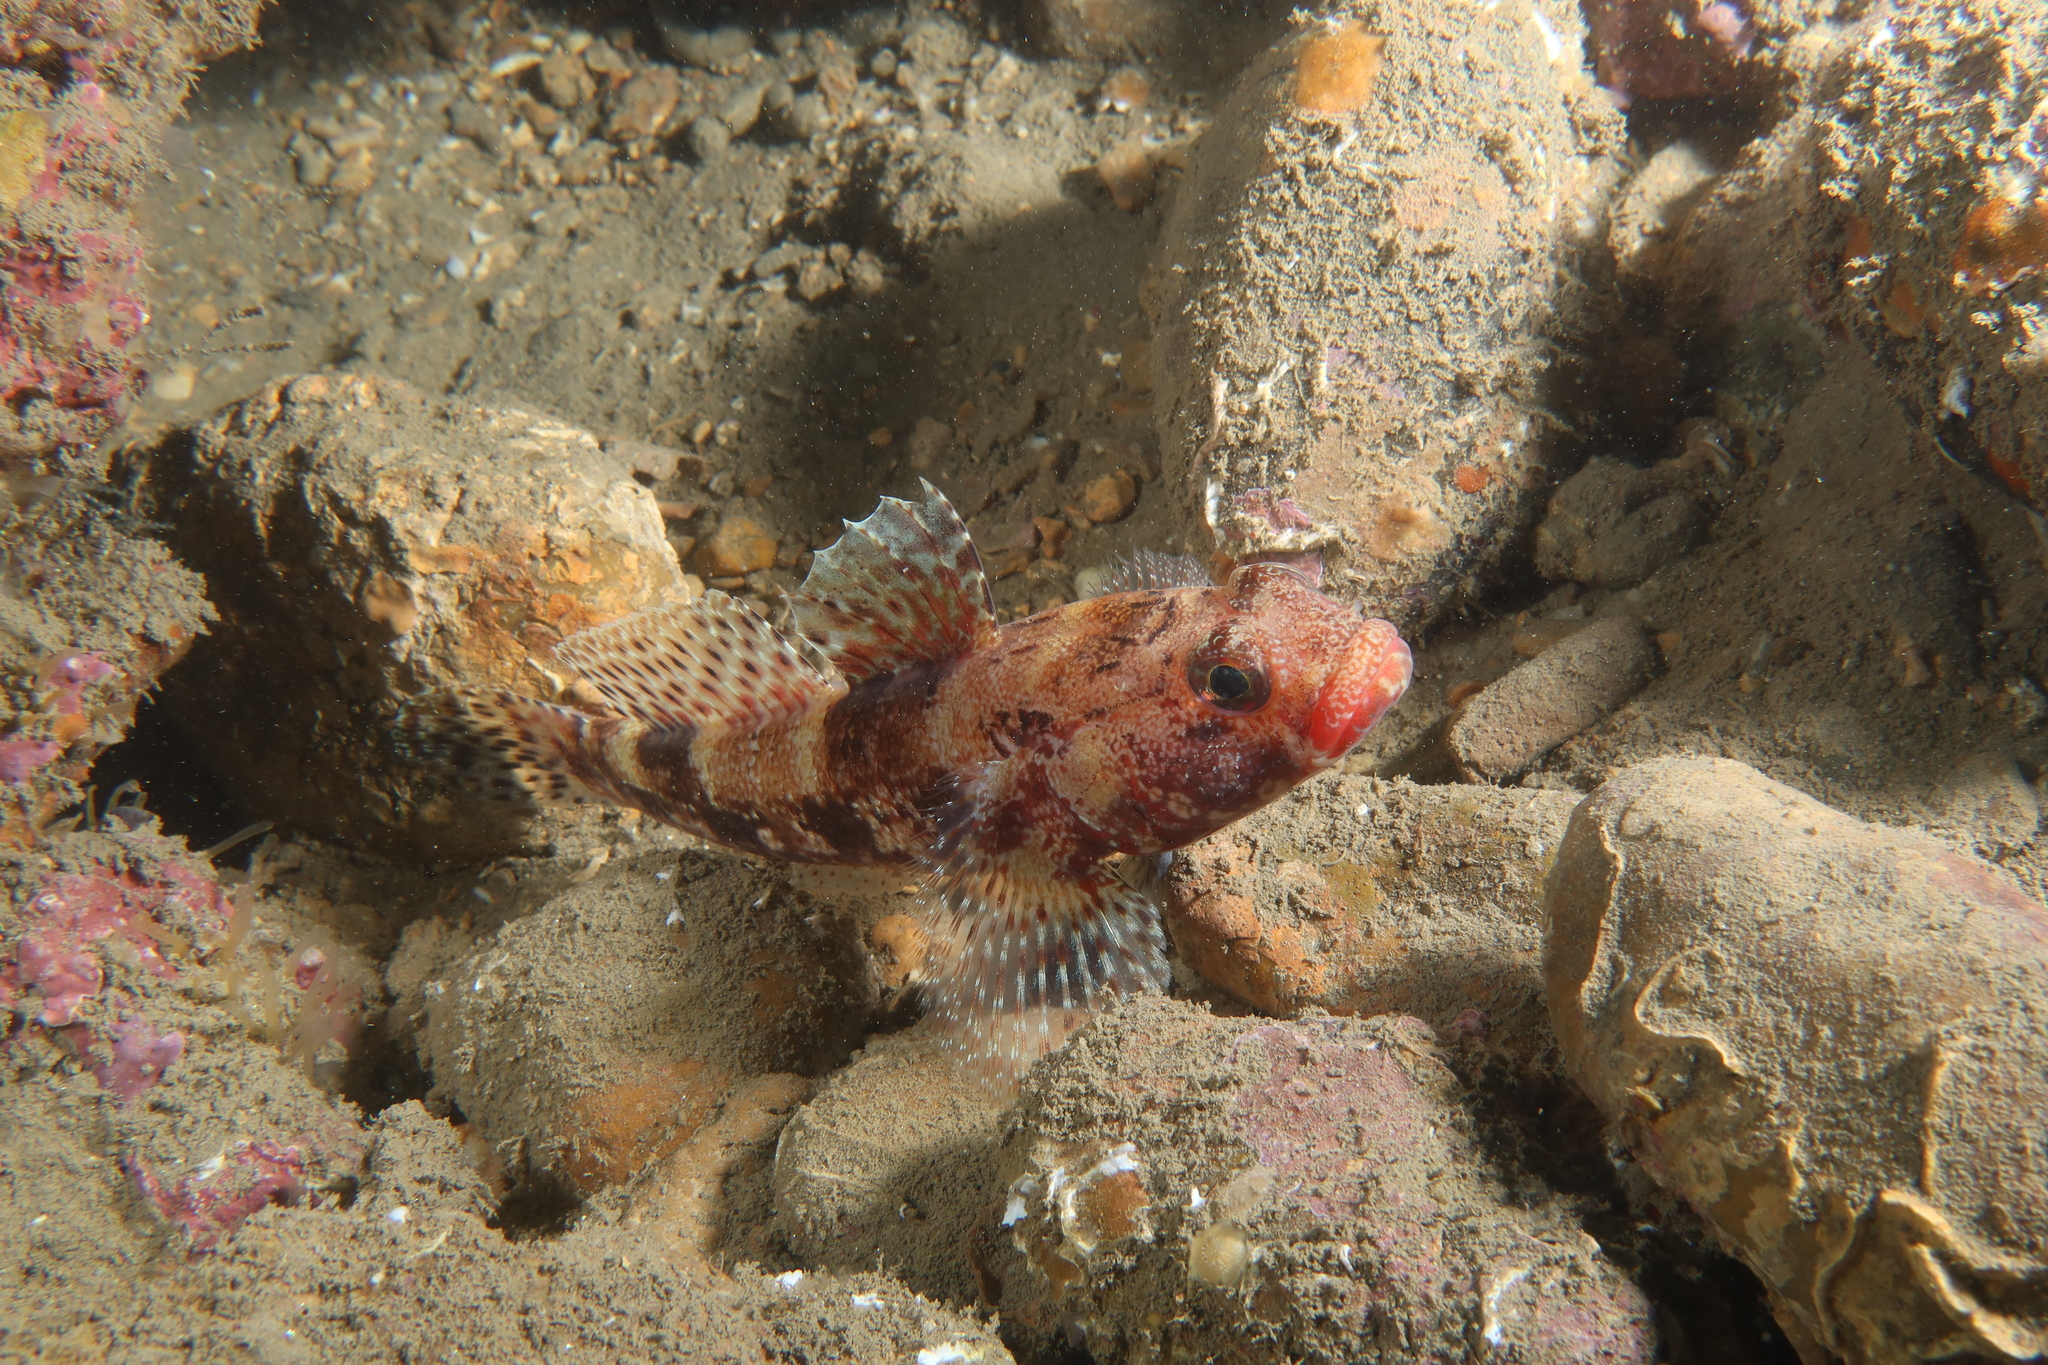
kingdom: Animalia
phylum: Chordata
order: Perciformes
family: Gobiidae
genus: Gobius
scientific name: Gobius cruentatus
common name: Red-mouthed goby
